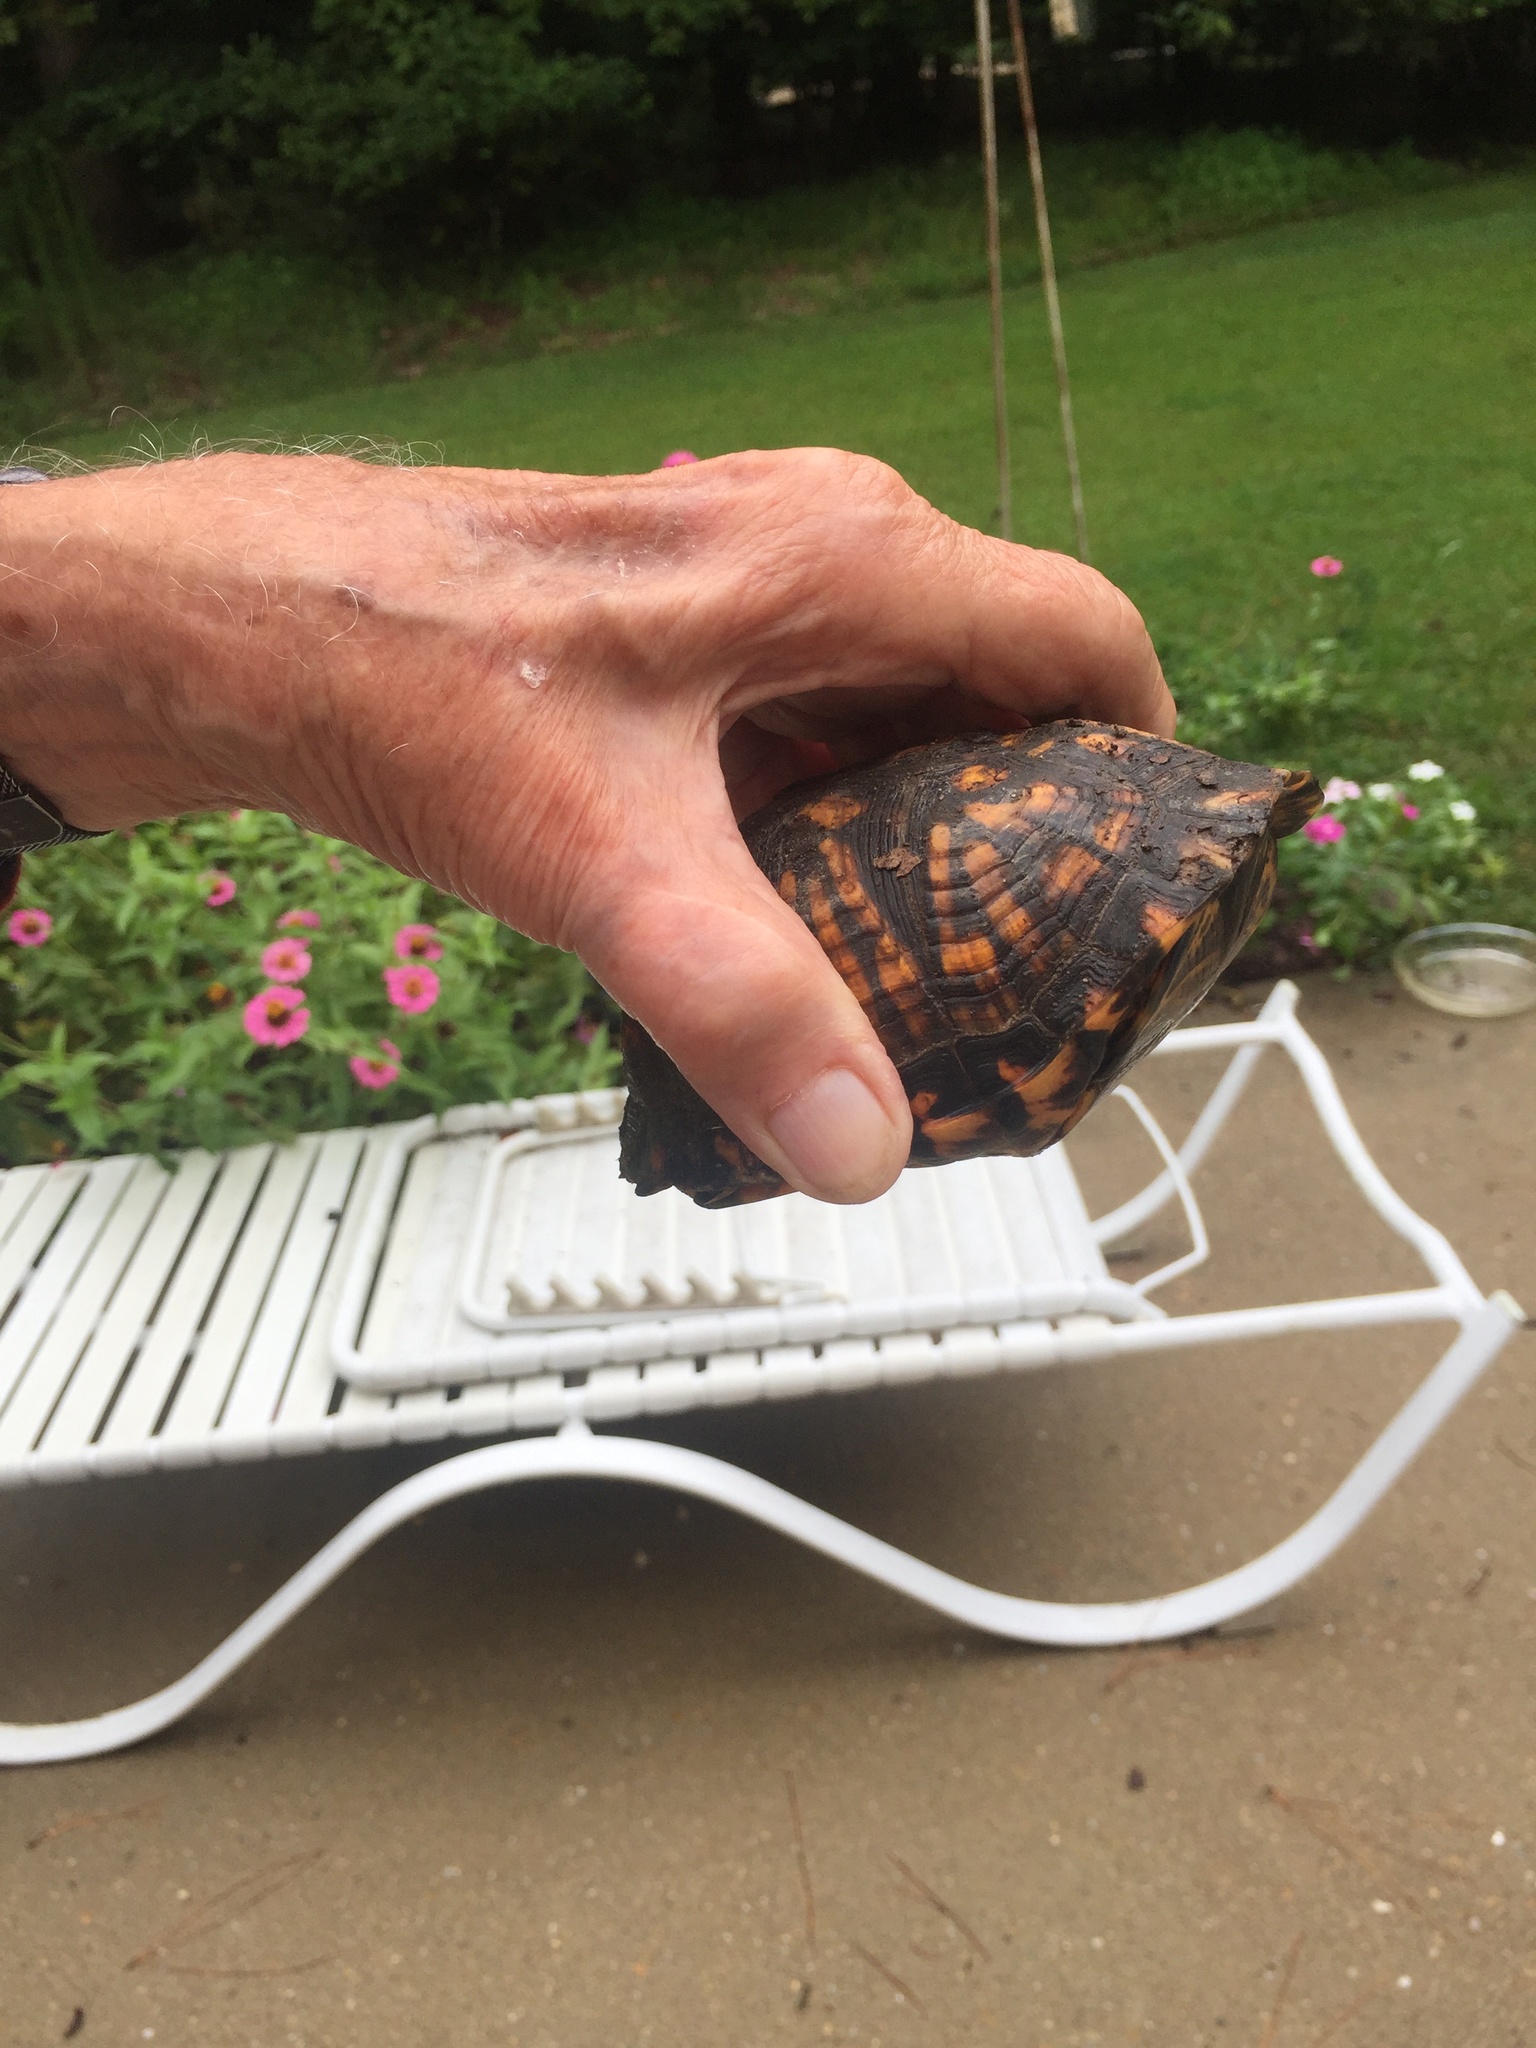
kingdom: Animalia
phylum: Chordata
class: Testudines
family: Emydidae
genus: Terrapene
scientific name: Terrapene carolina
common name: Common box turtle
